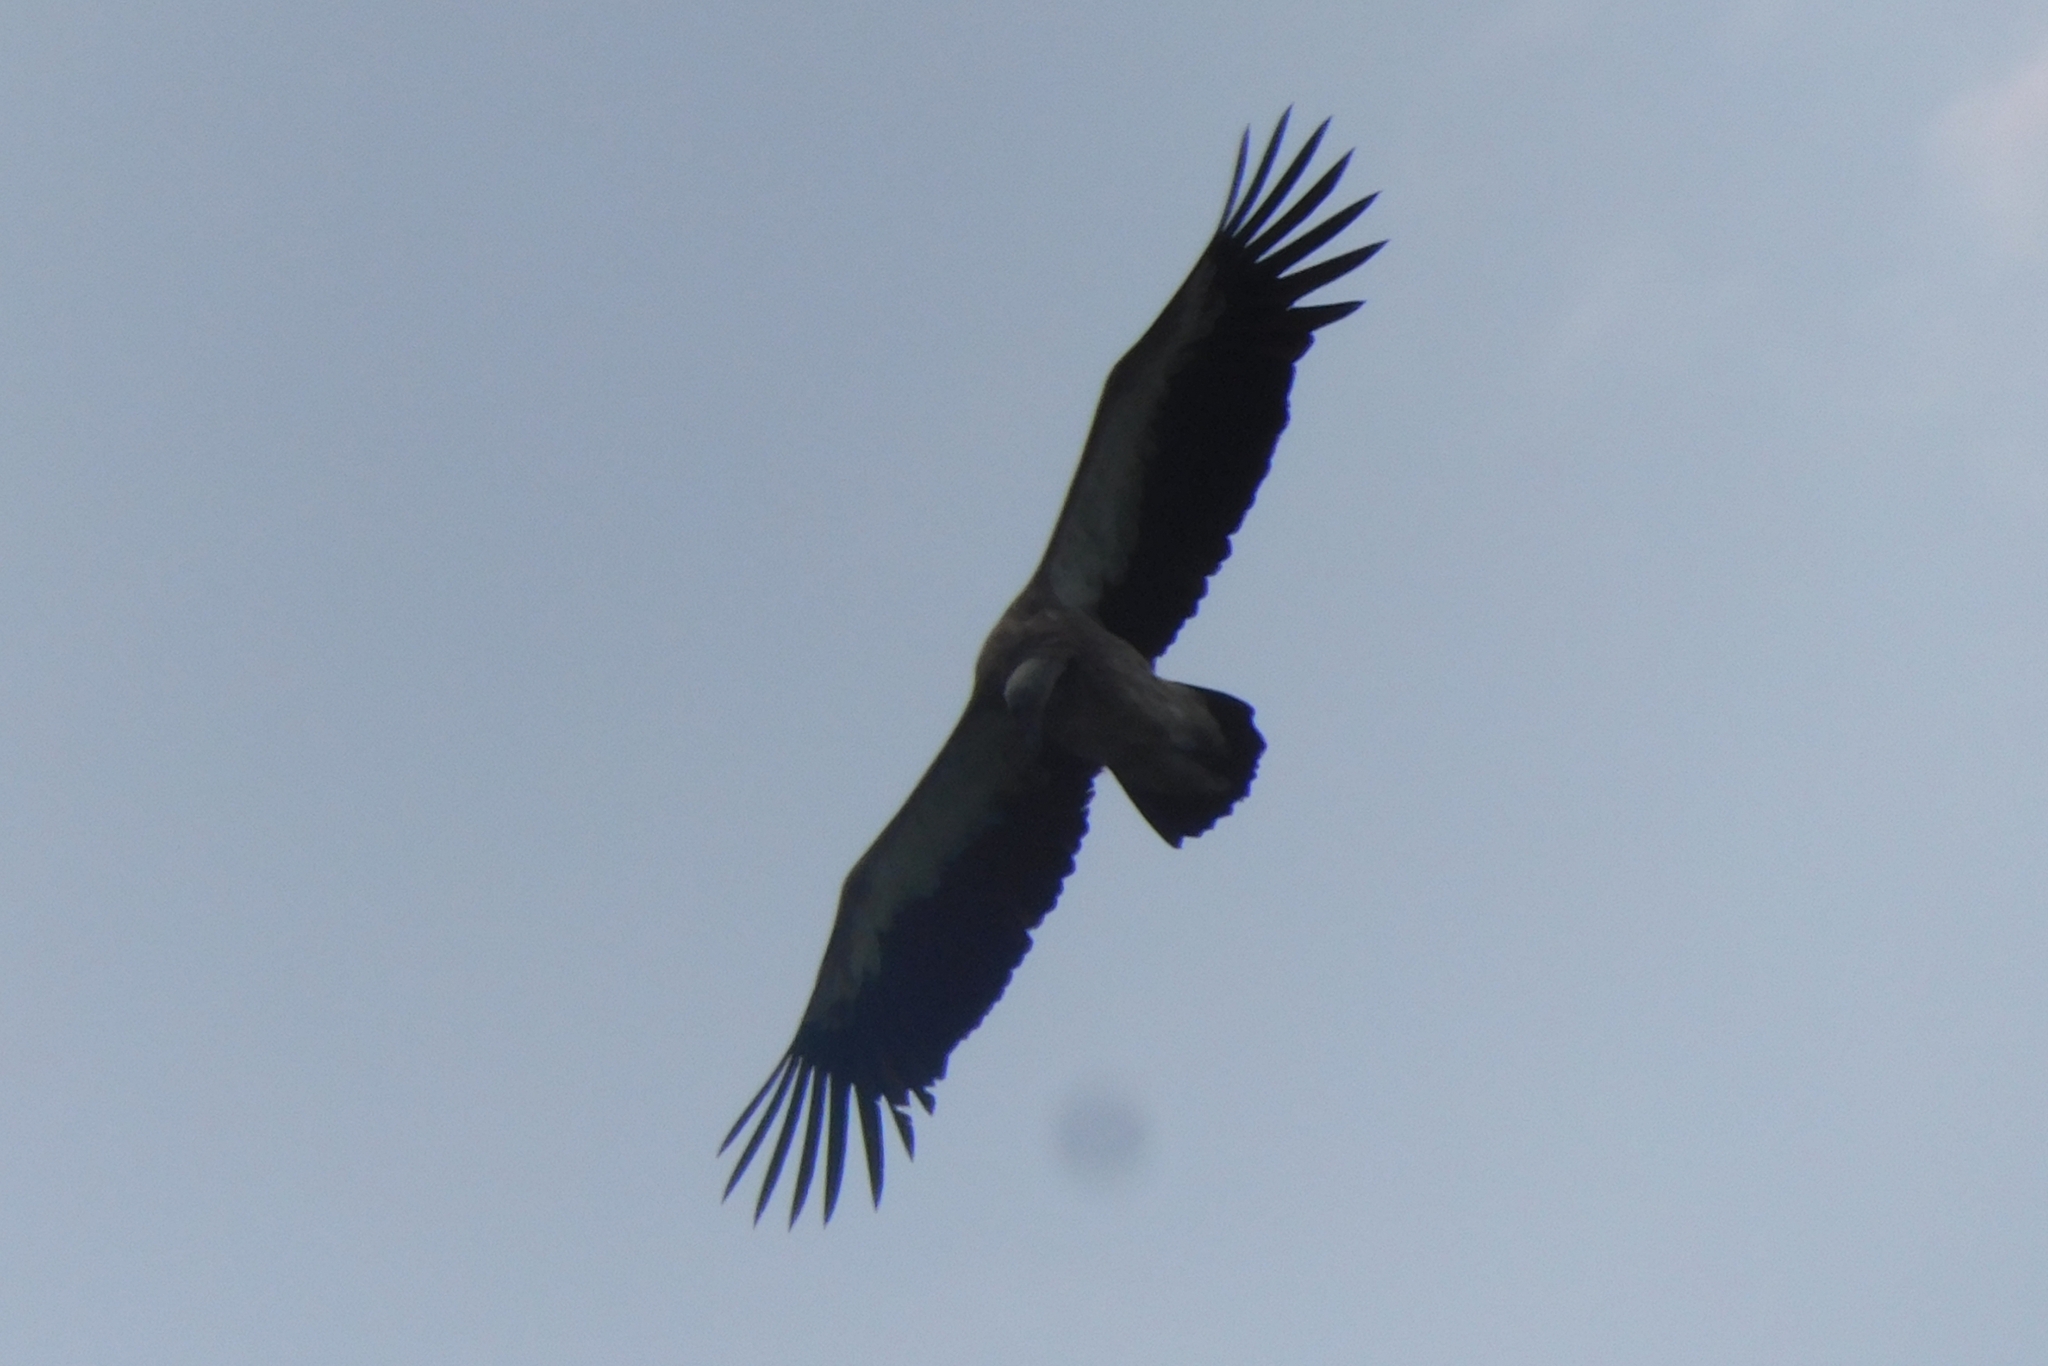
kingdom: Animalia
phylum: Chordata
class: Aves
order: Accipitriformes
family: Accipitridae
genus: Gyps
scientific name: Gyps himalayensis
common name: Himalayan griffon
